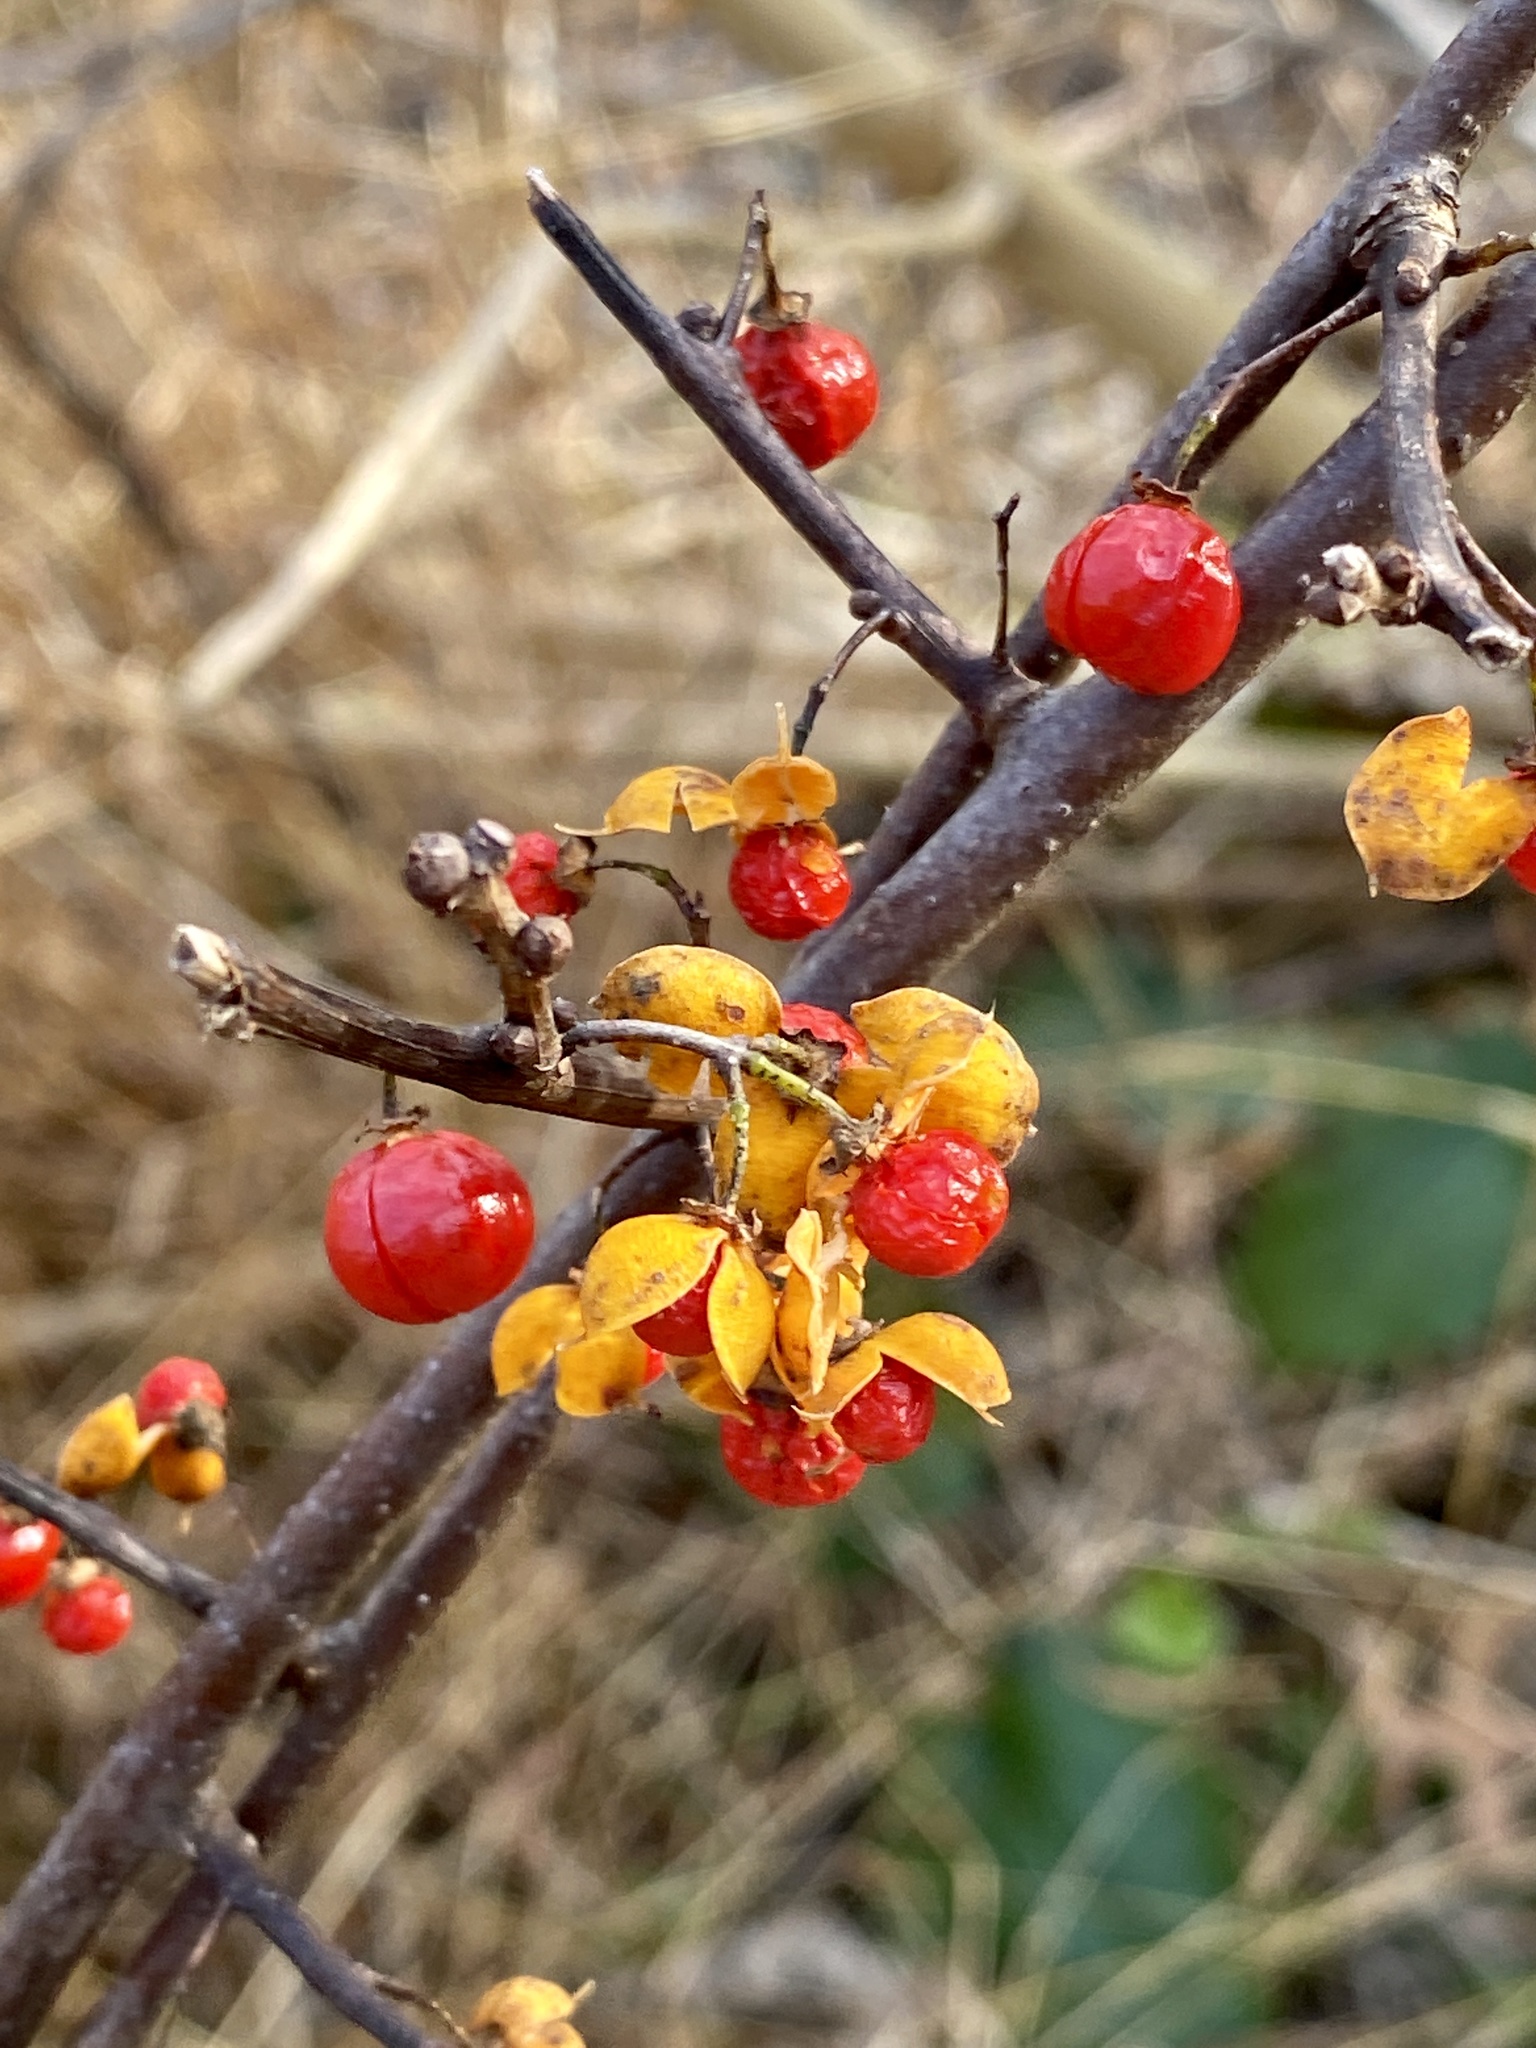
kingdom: Plantae
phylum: Tracheophyta
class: Magnoliopsida
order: Celastrales
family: Celastraceae
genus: Celastrus
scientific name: Celastrus orbiculatus
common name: Oriental bittersweet
